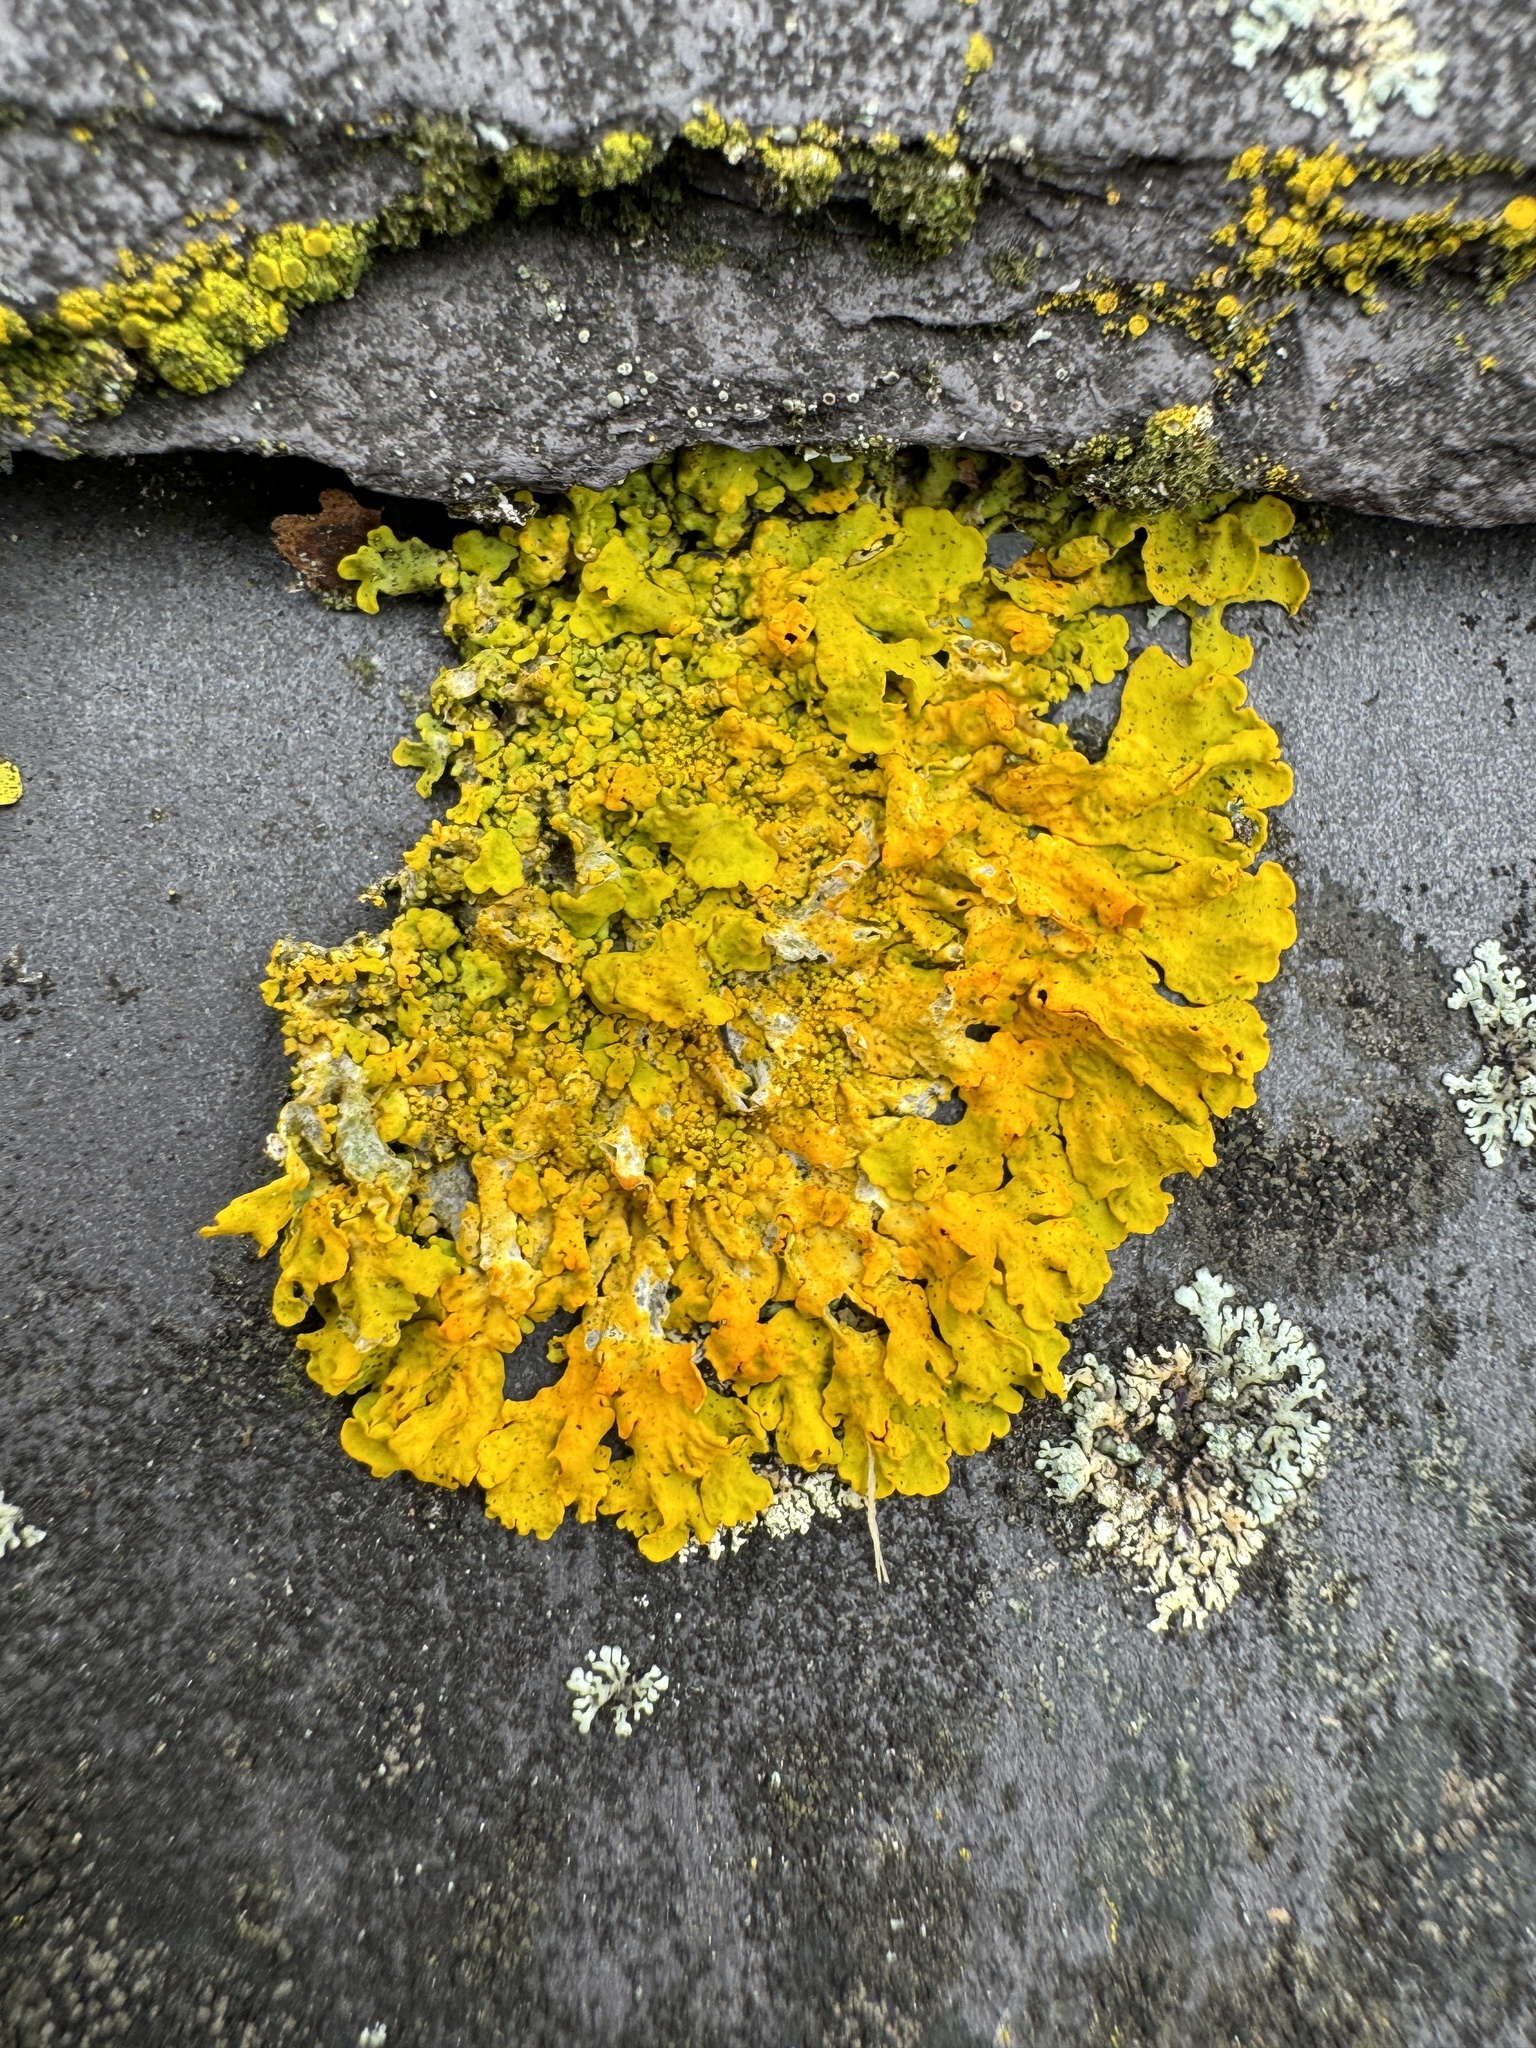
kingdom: Fungi
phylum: Ascomycota
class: Lecanoromycetes
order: Teloschistales
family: Teloschistaceae
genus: Xanthoria
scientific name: Xanthoria parietina
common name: Common orange lichen
